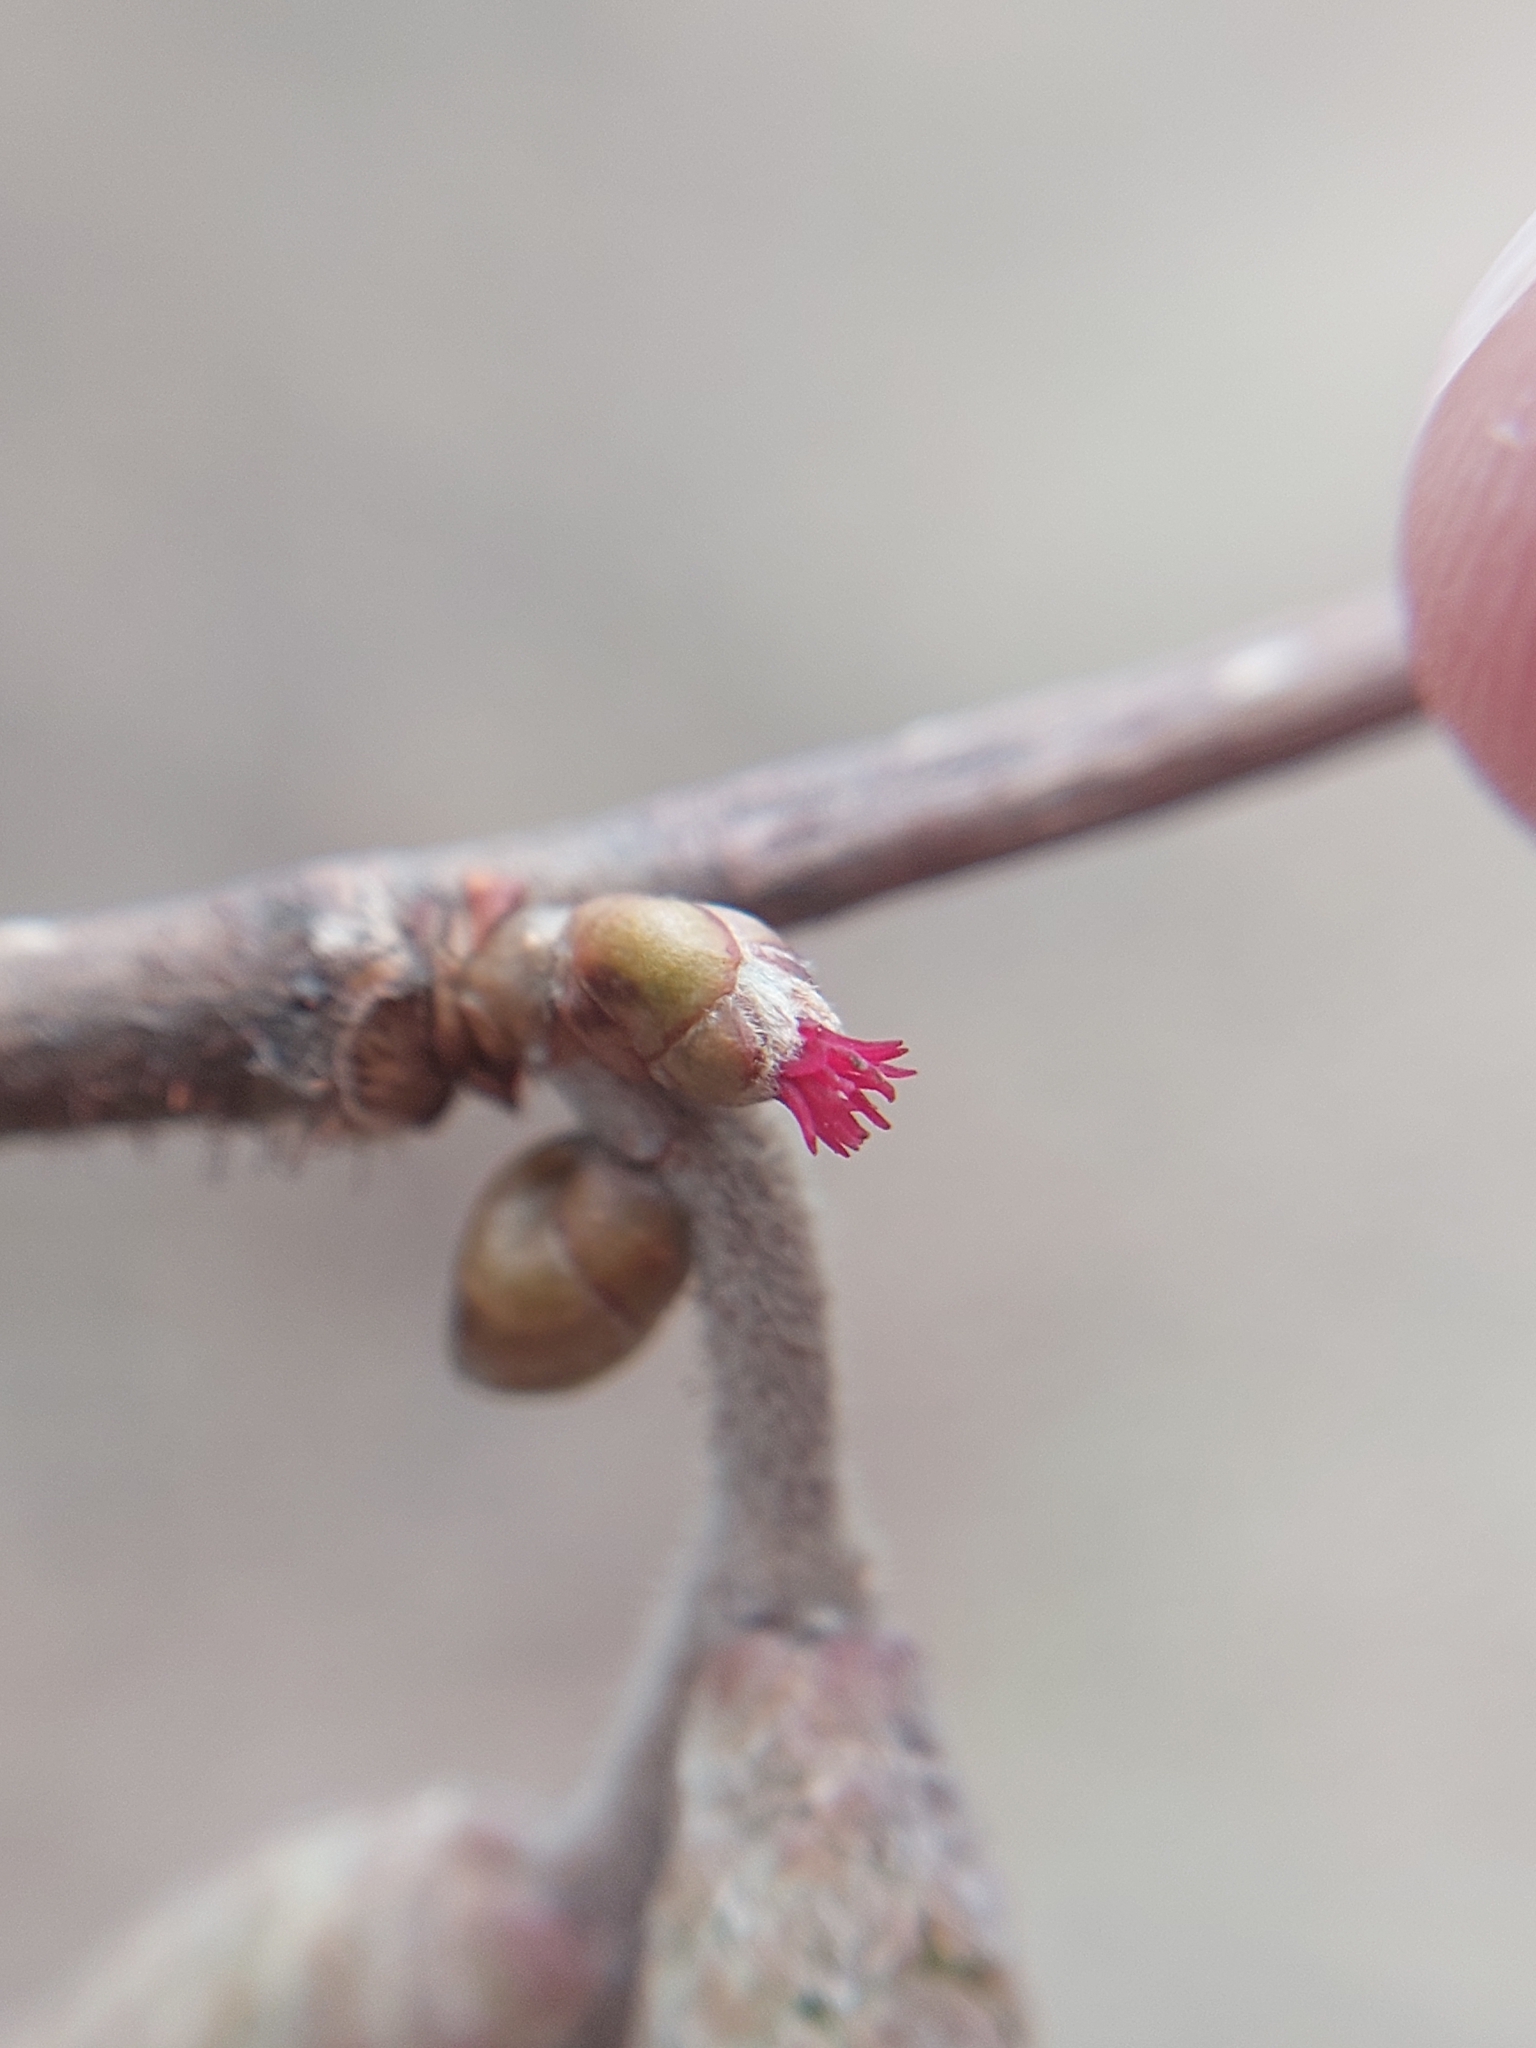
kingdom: Plantae
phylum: Tracheophyta
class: Magnoliopsida
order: Fagales
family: Betulaceae
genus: Corylus
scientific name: Corylus avellana
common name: European hazel
